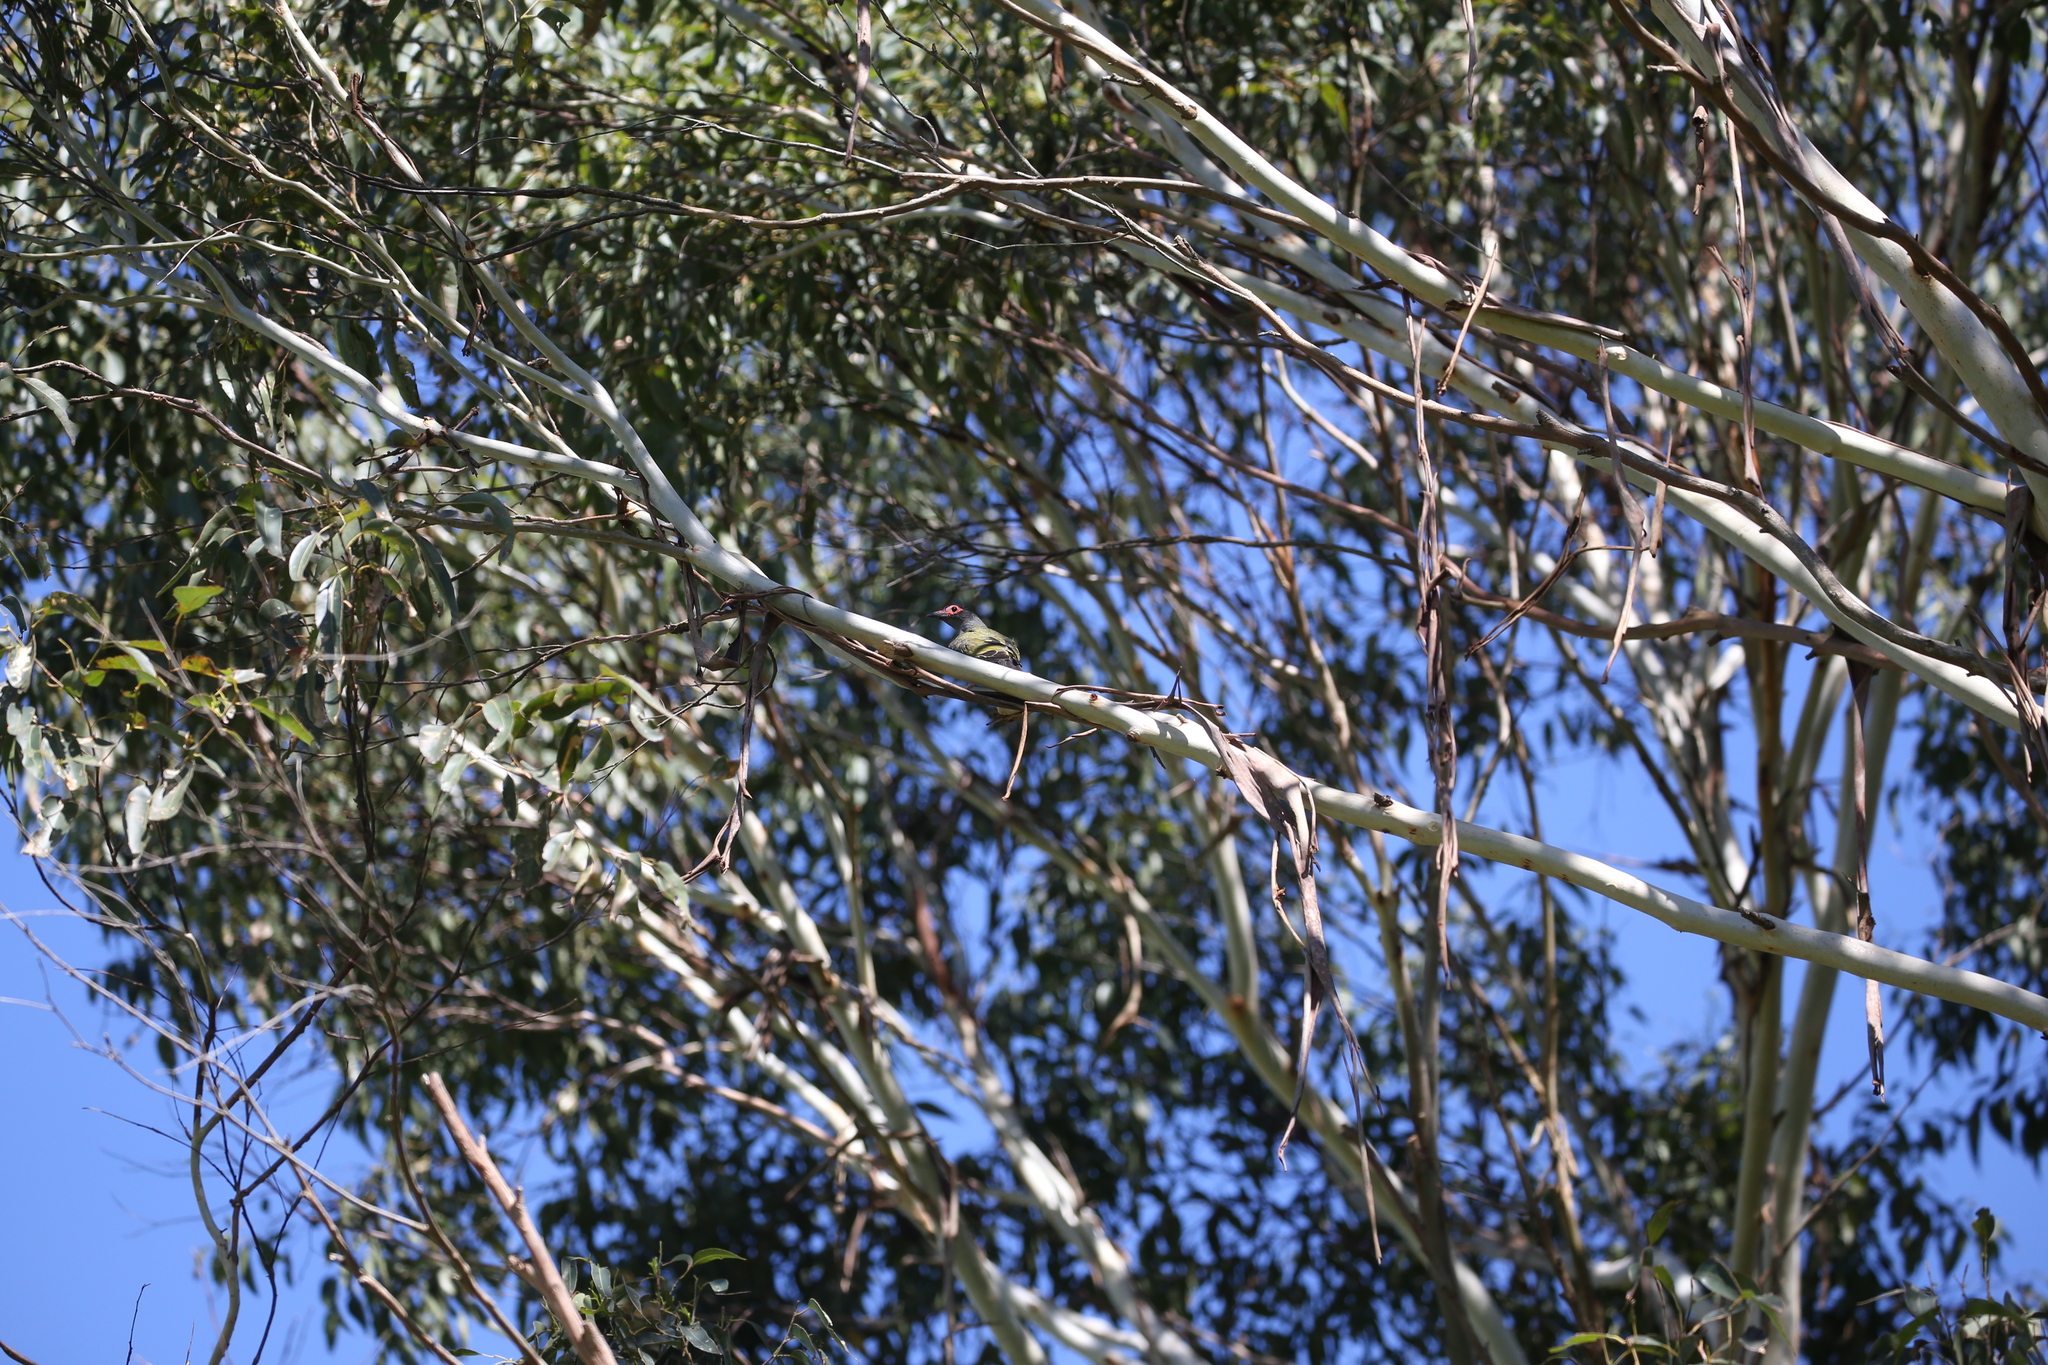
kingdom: Animalia
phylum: Chordata
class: Aves
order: Passeriformes
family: Oriolidae
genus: Sphecotheres
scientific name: Sphecotheres vieilloti
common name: Australasian figbird
